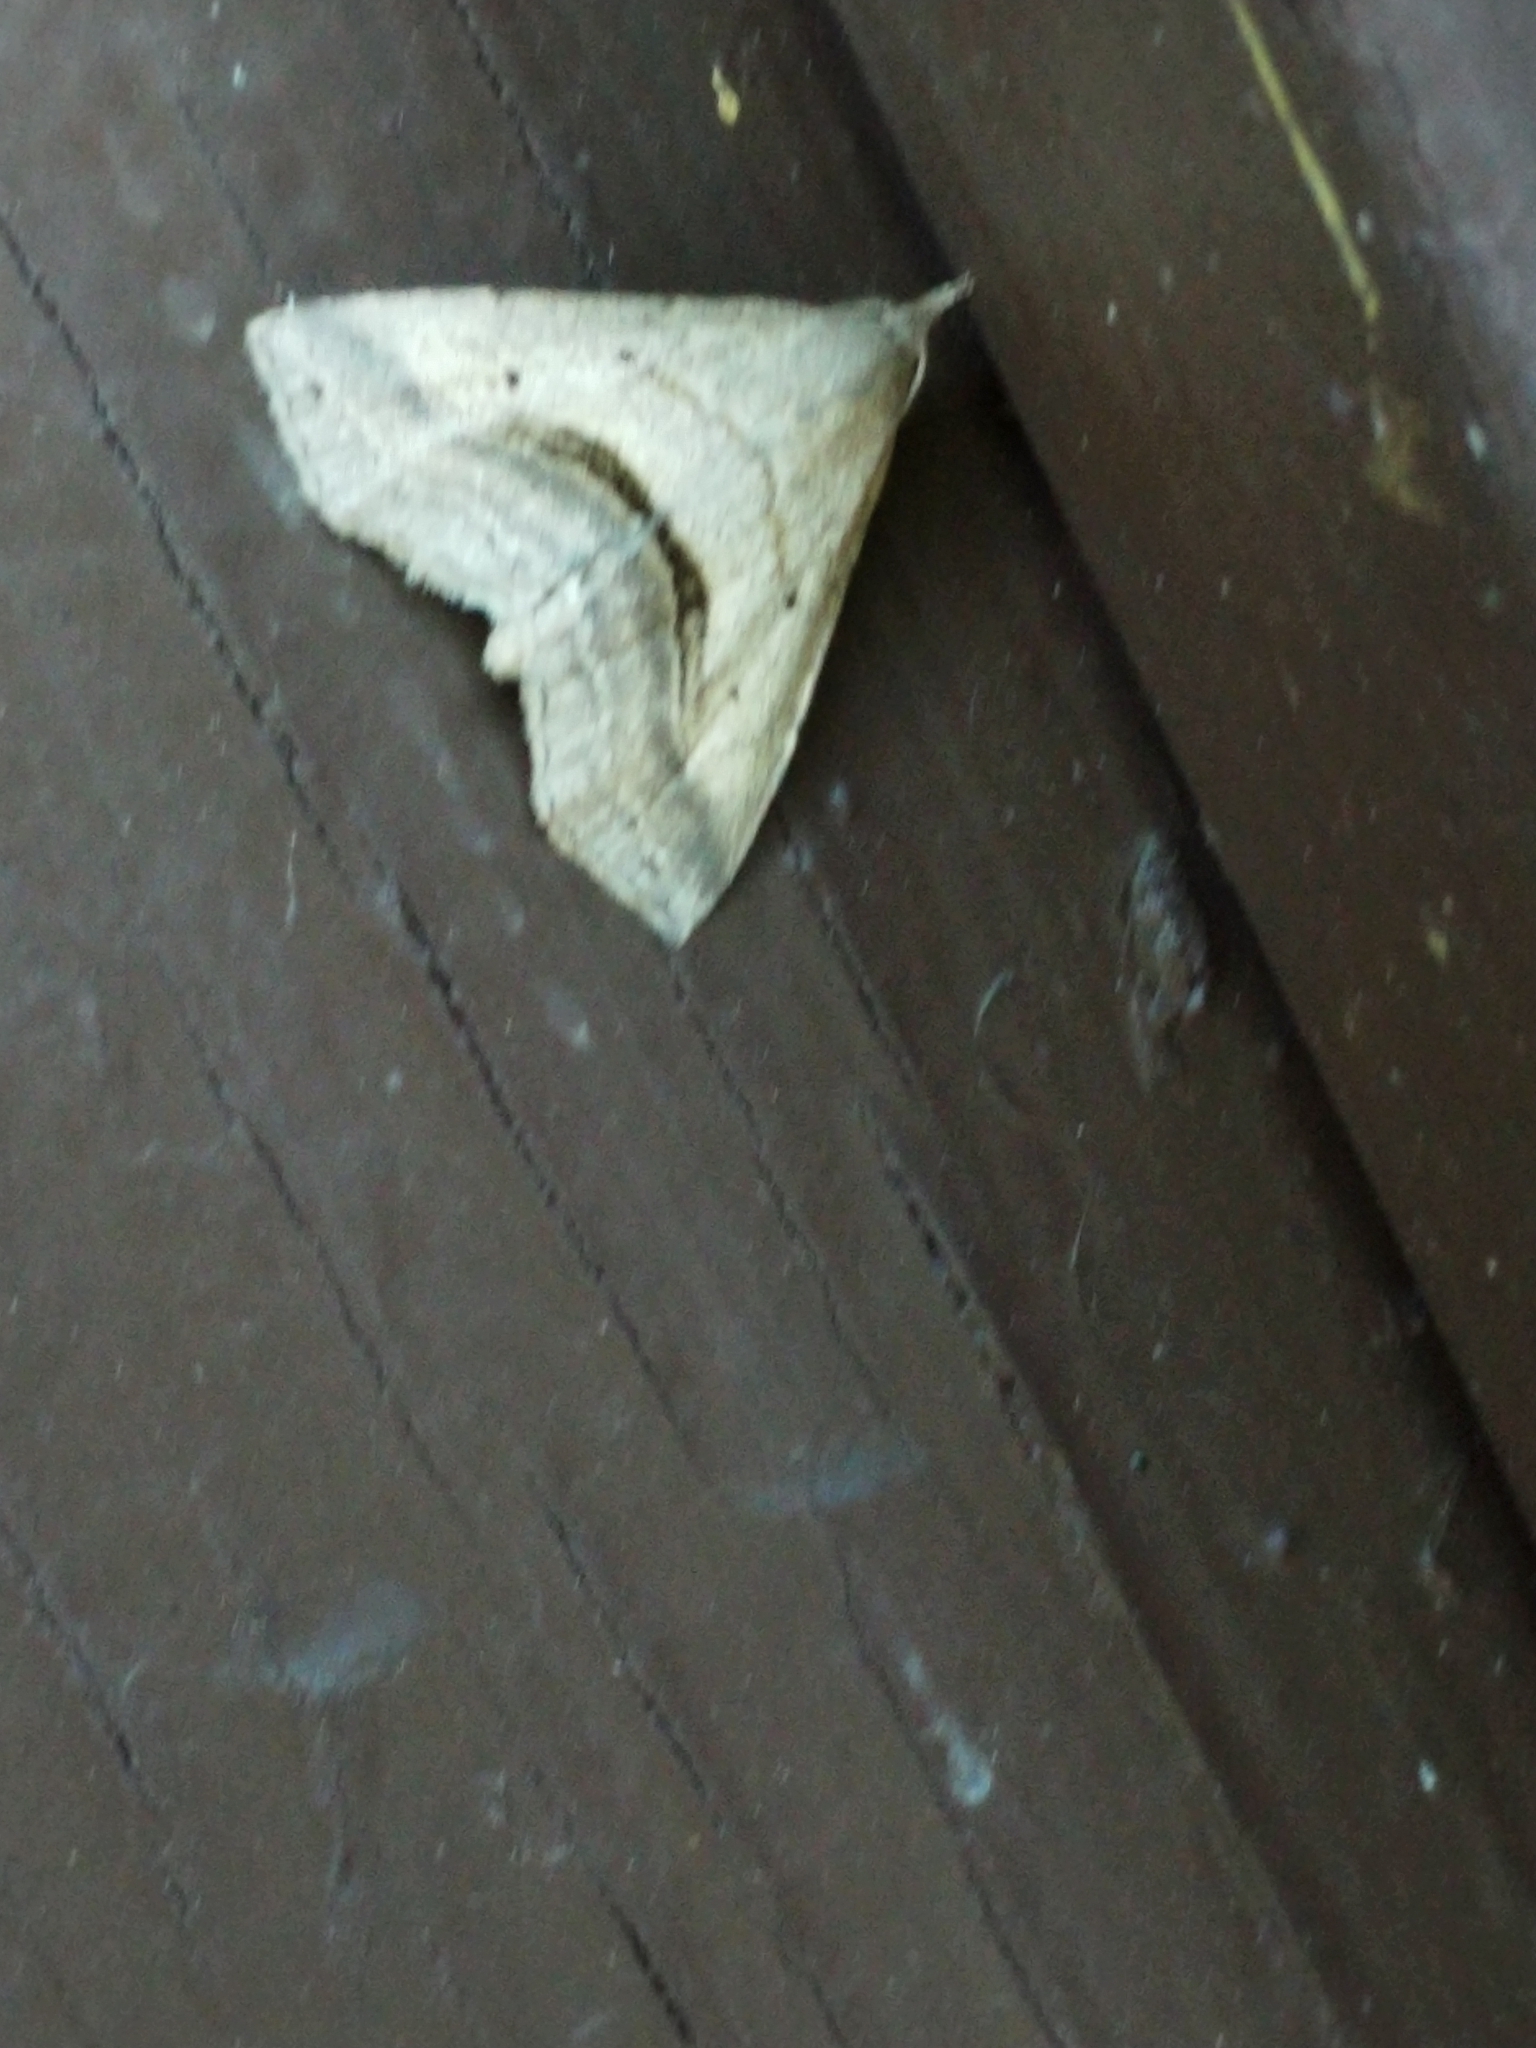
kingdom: Animalia
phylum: Arthropoda
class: Insecta
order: Lepidoptera
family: Erebidae
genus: Spargaloma
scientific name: Spargaloma perditalis
